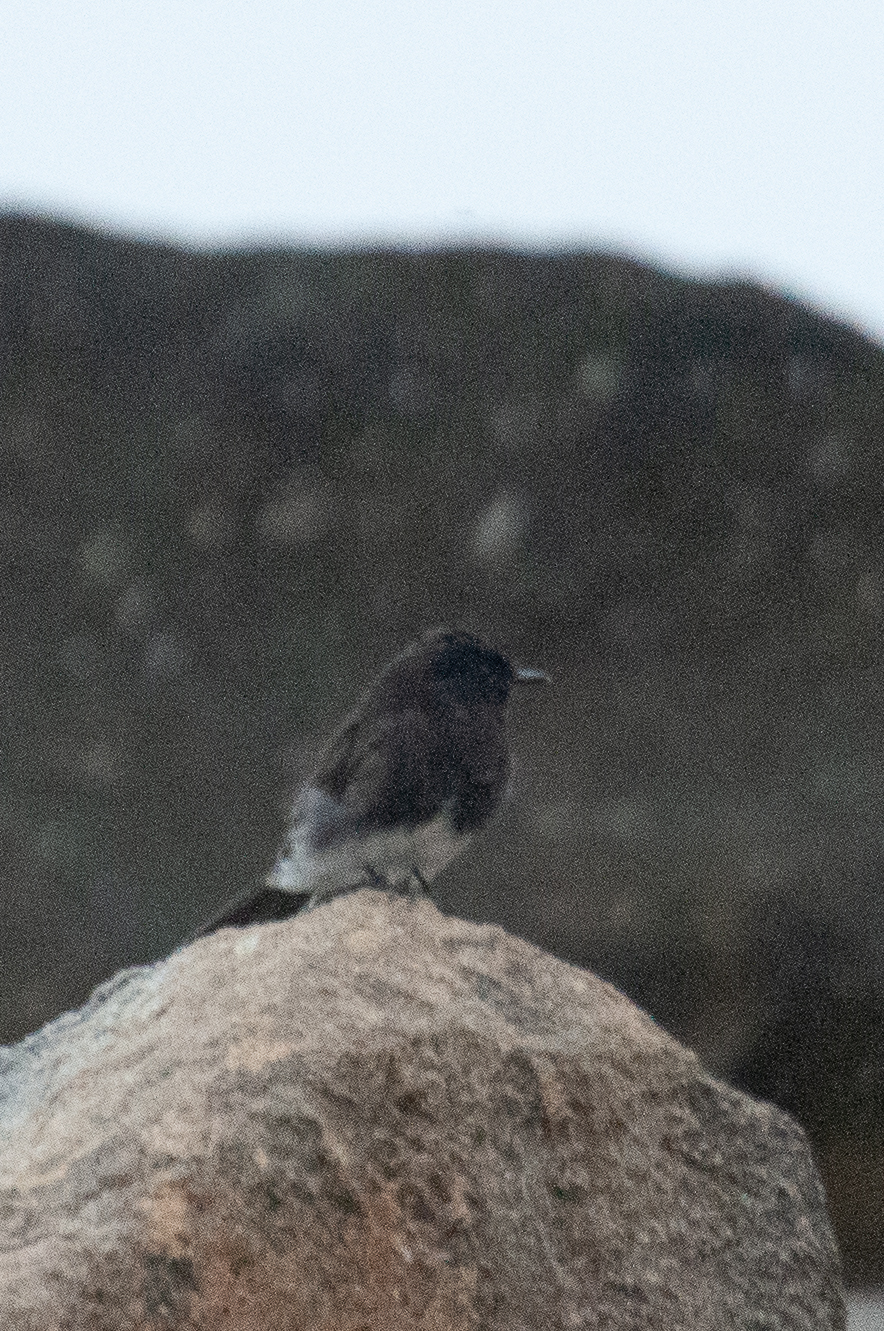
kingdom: Animalia
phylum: Chordata
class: Aves
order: Passeriformes
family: Tyrannidae
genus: Sayornis
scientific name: Sayornis nigricans
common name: Black phoebe
